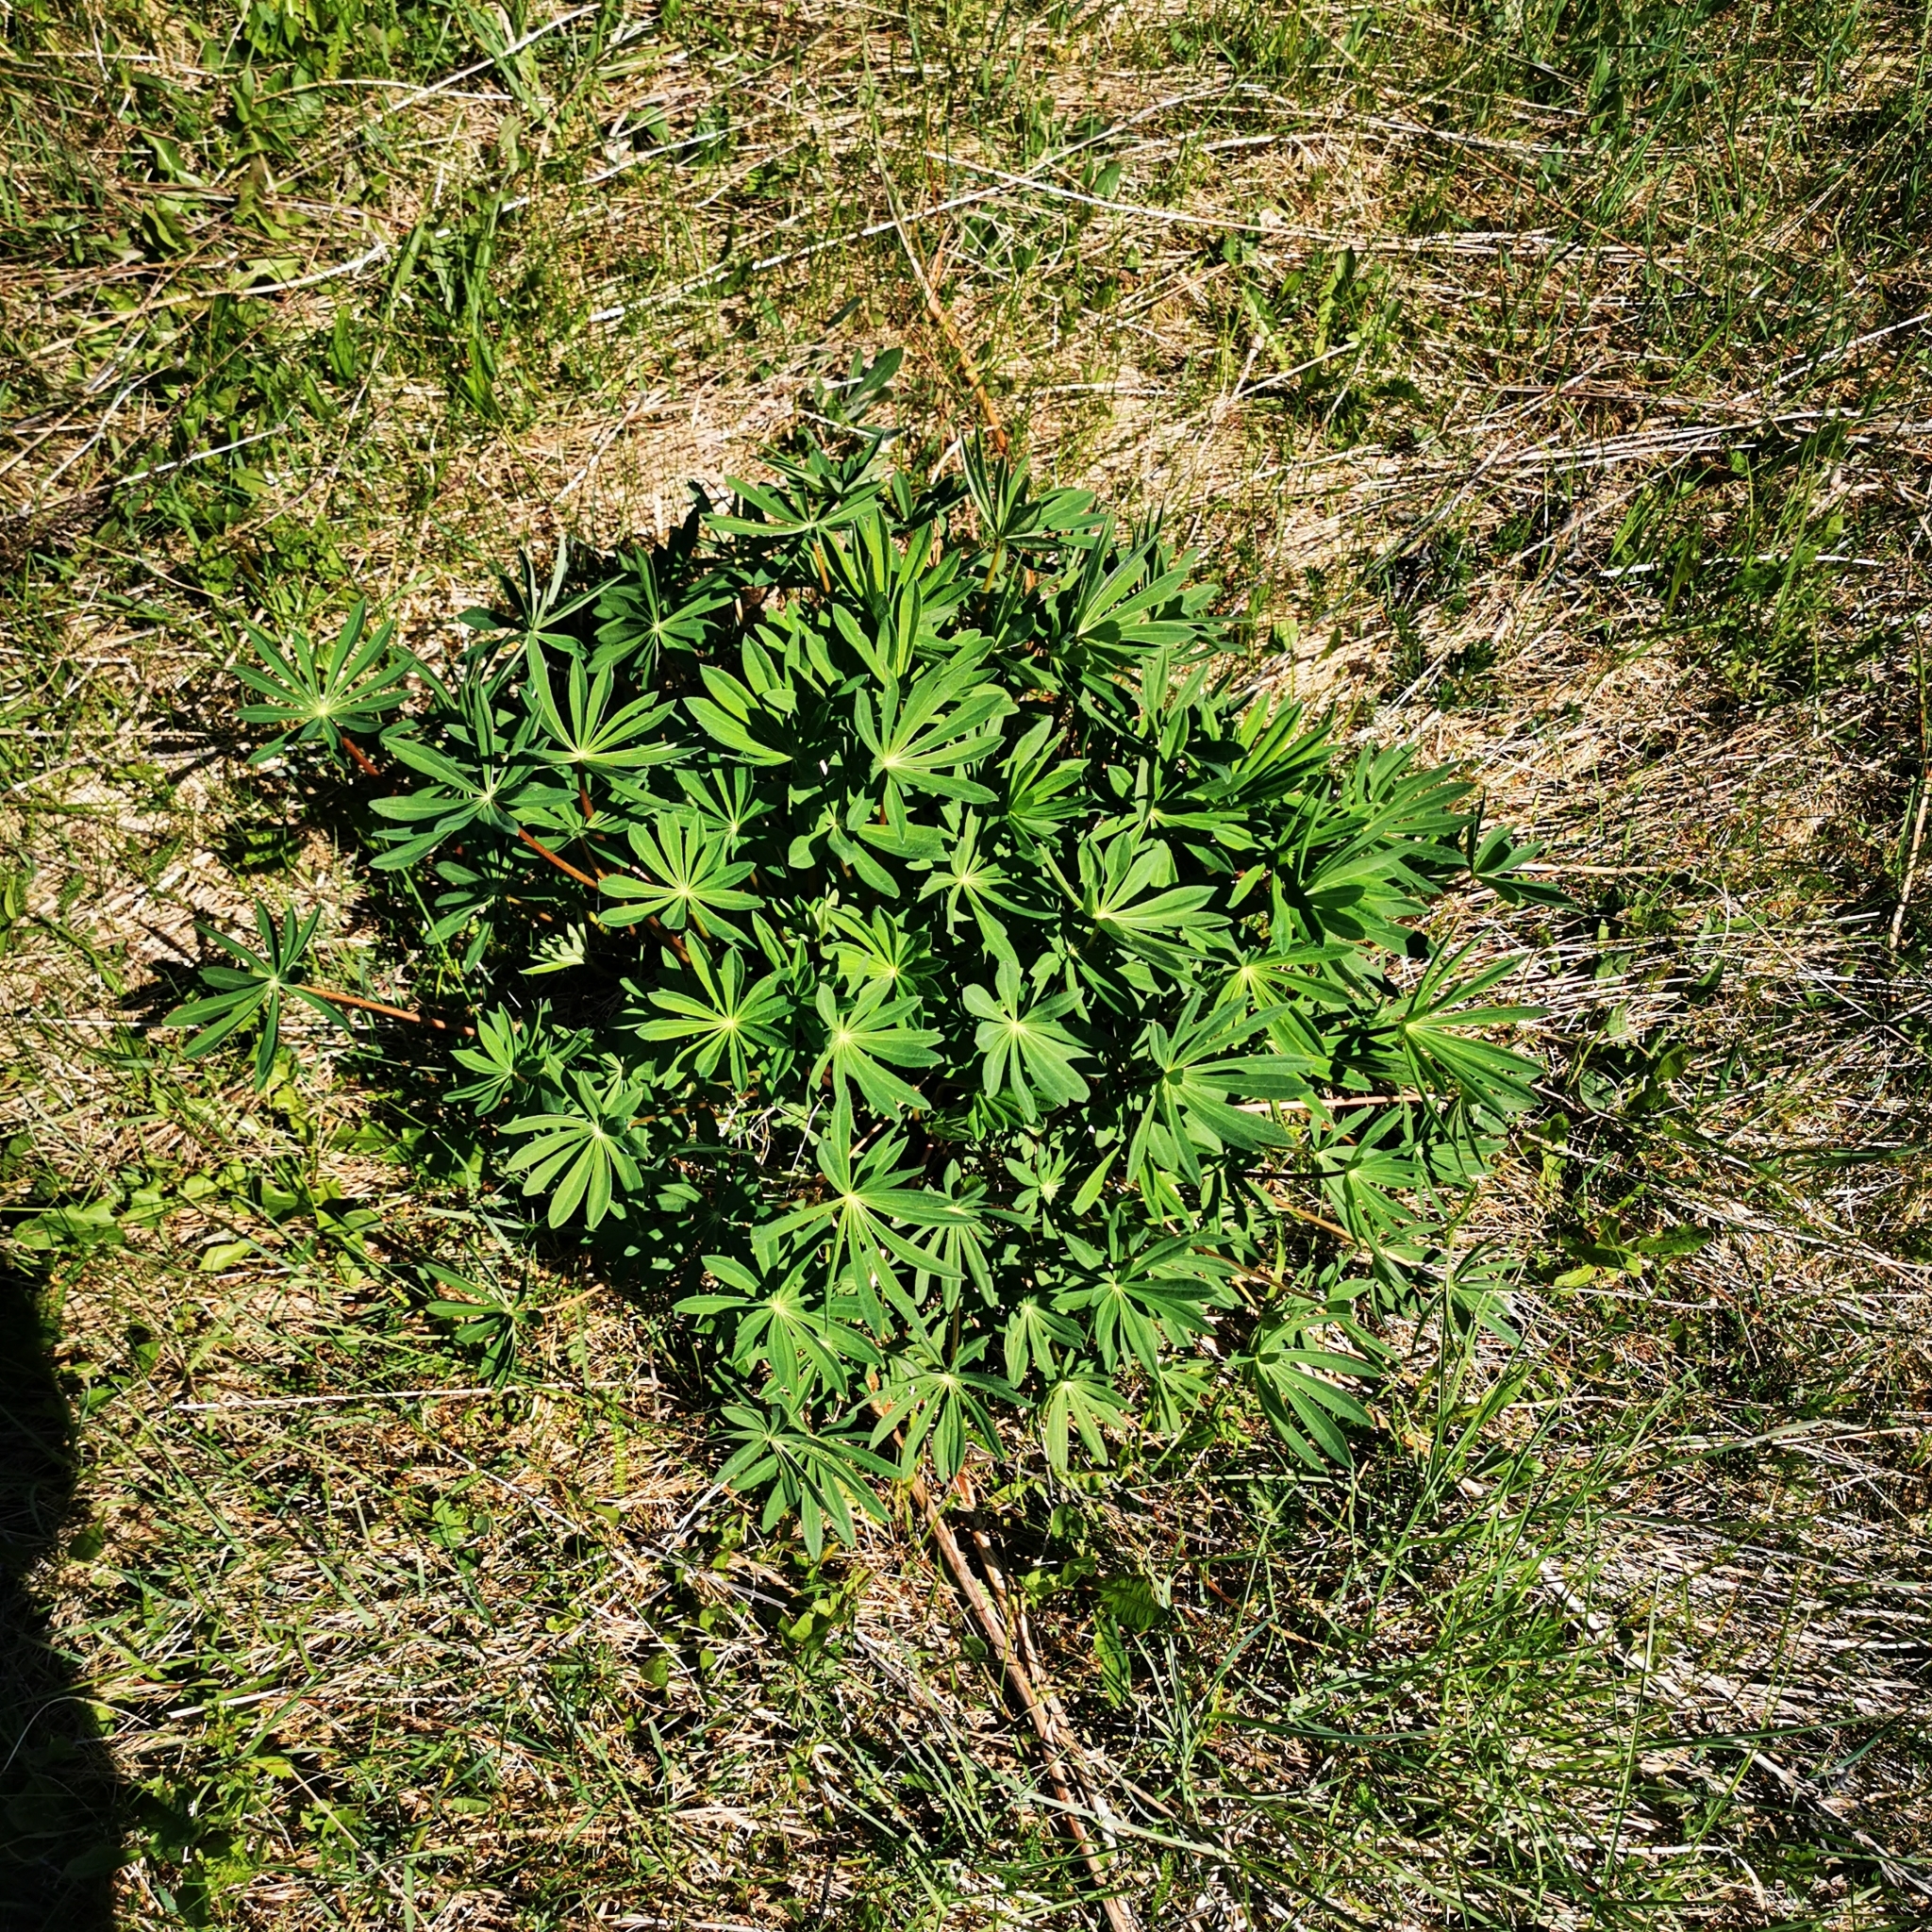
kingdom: Plantae
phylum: Tracheophyta
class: Magnoliopsida
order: Fabales
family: Fabaceae
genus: Lupinus
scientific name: Lupinus polyphyllus
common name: Garden lupin
